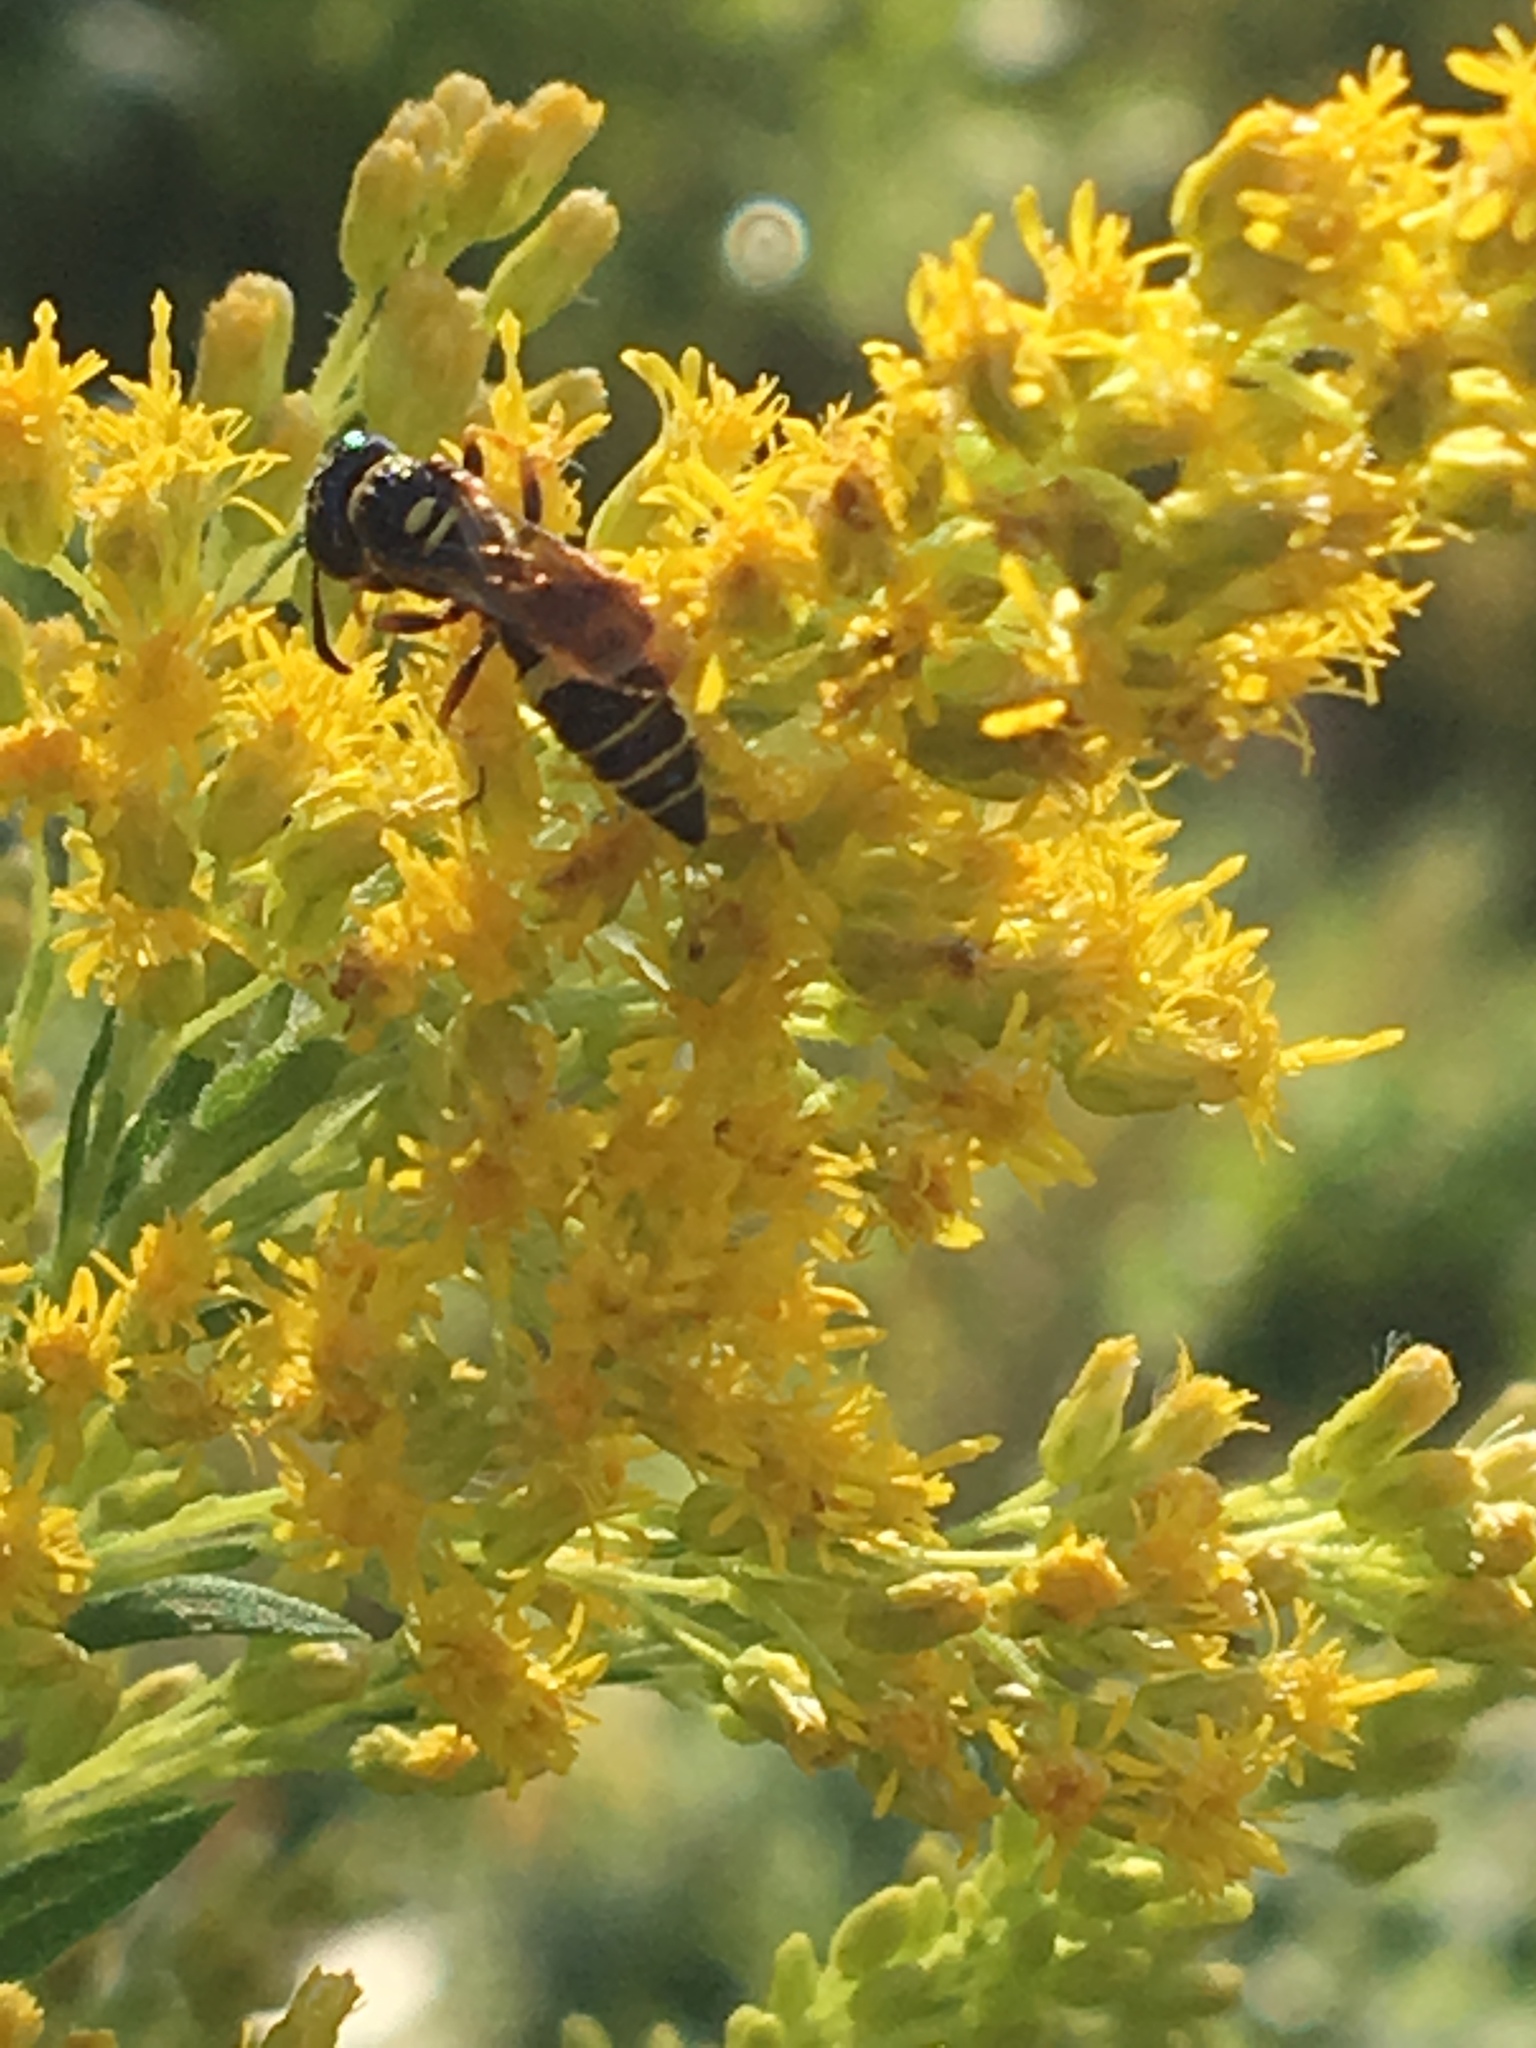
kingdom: Animalia
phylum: Arthropoda
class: Insecta
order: Hymenoptera
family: Crabronidae
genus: Philanthus
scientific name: Philanthus gibbosus
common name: Humped beewolf
